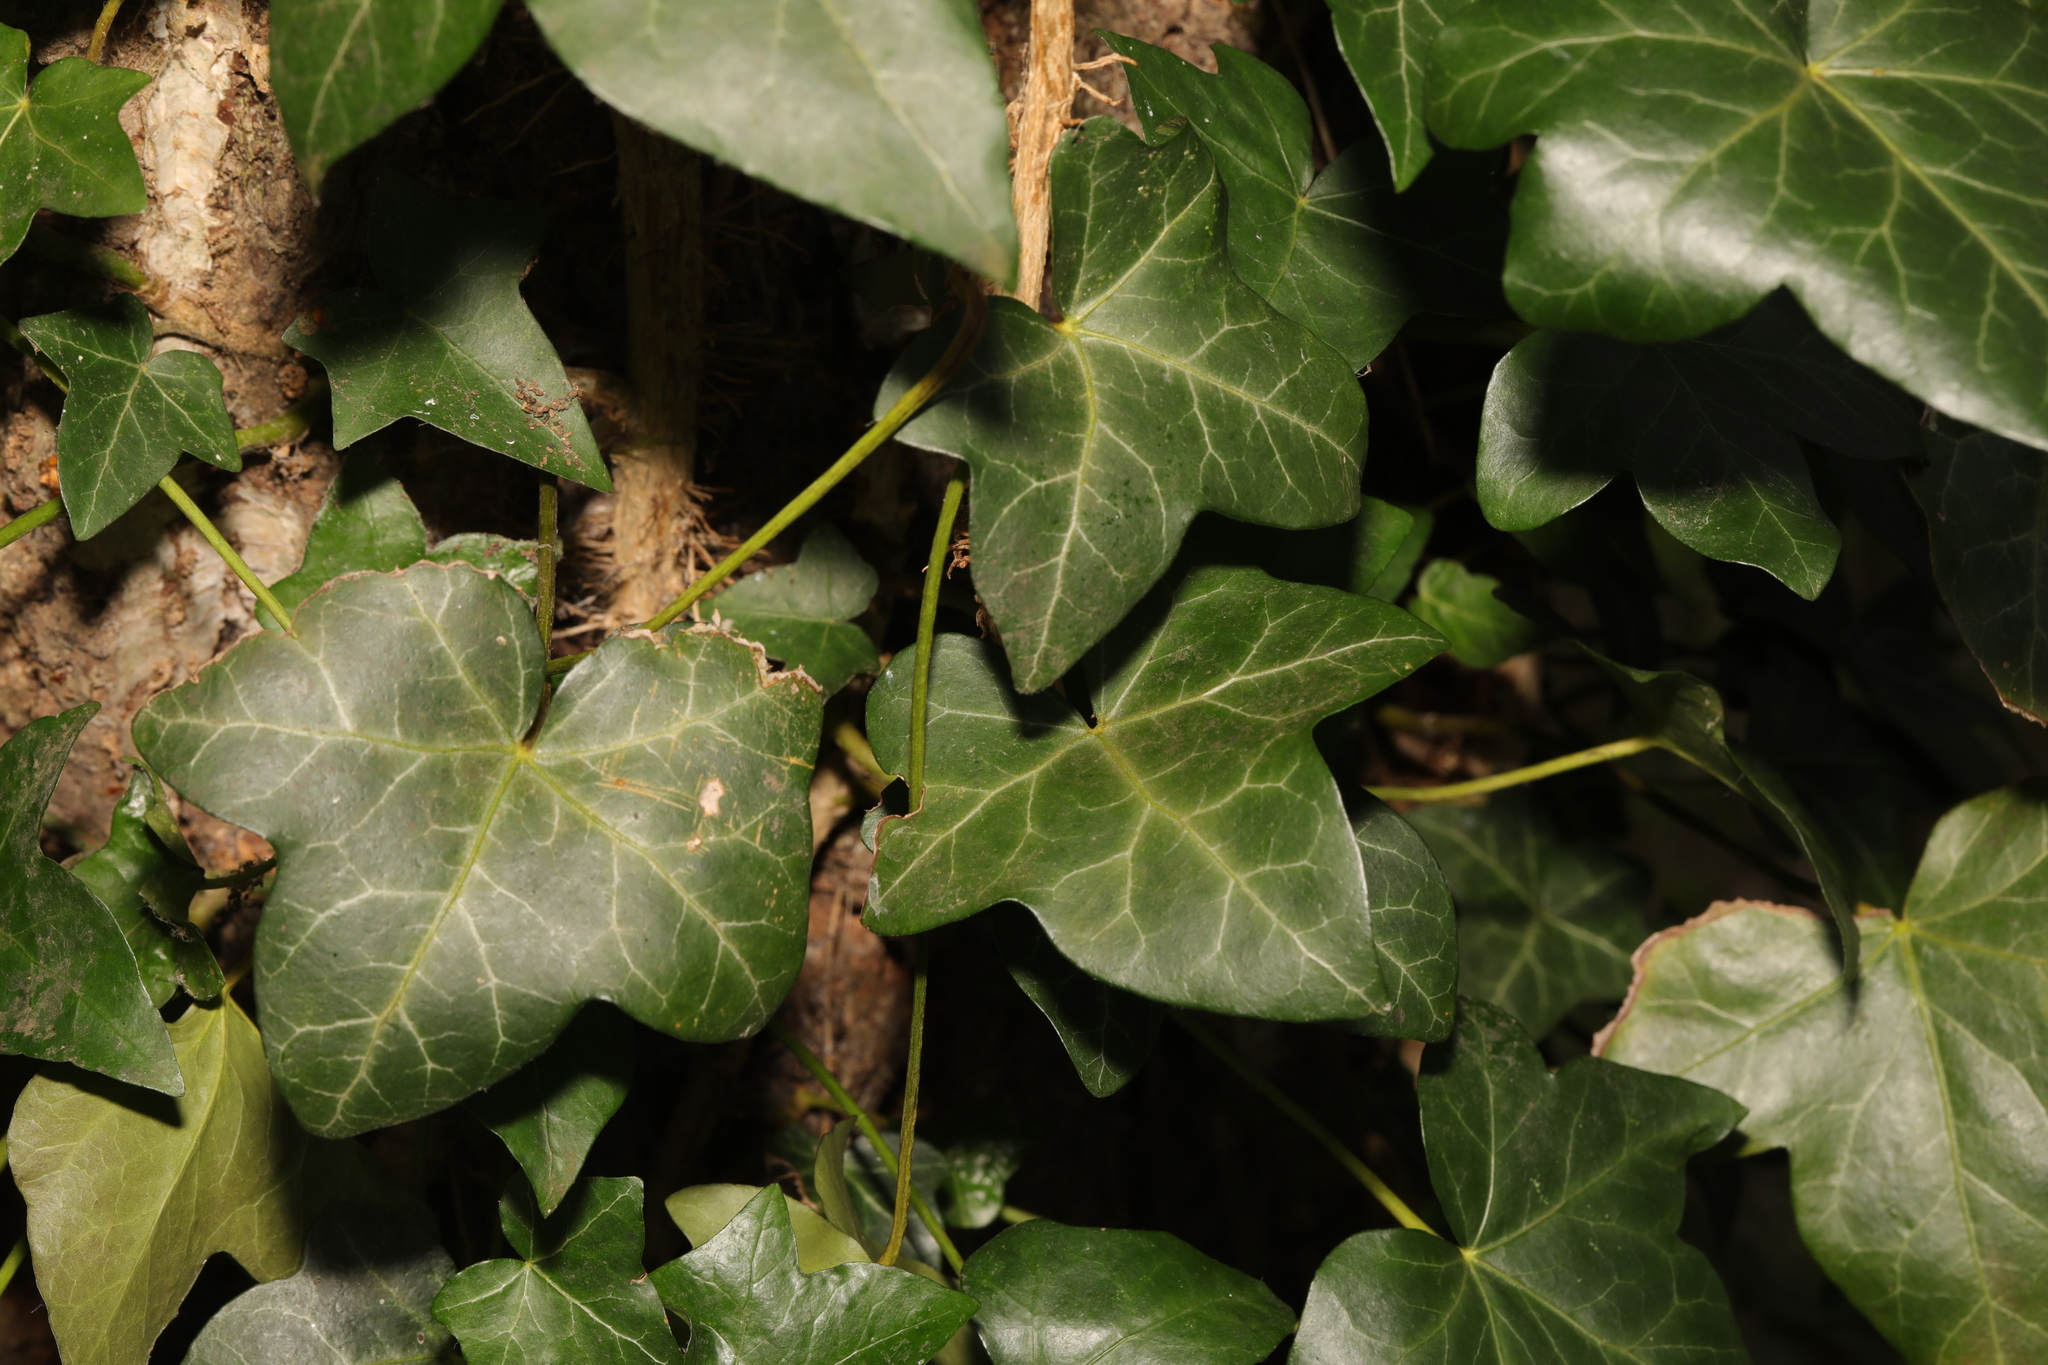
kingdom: Plantae
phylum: Tracheophyta
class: Magnoliopsida
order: Apiales
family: Araliaceae
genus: Hedera
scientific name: Hedera helix
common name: Ivy
